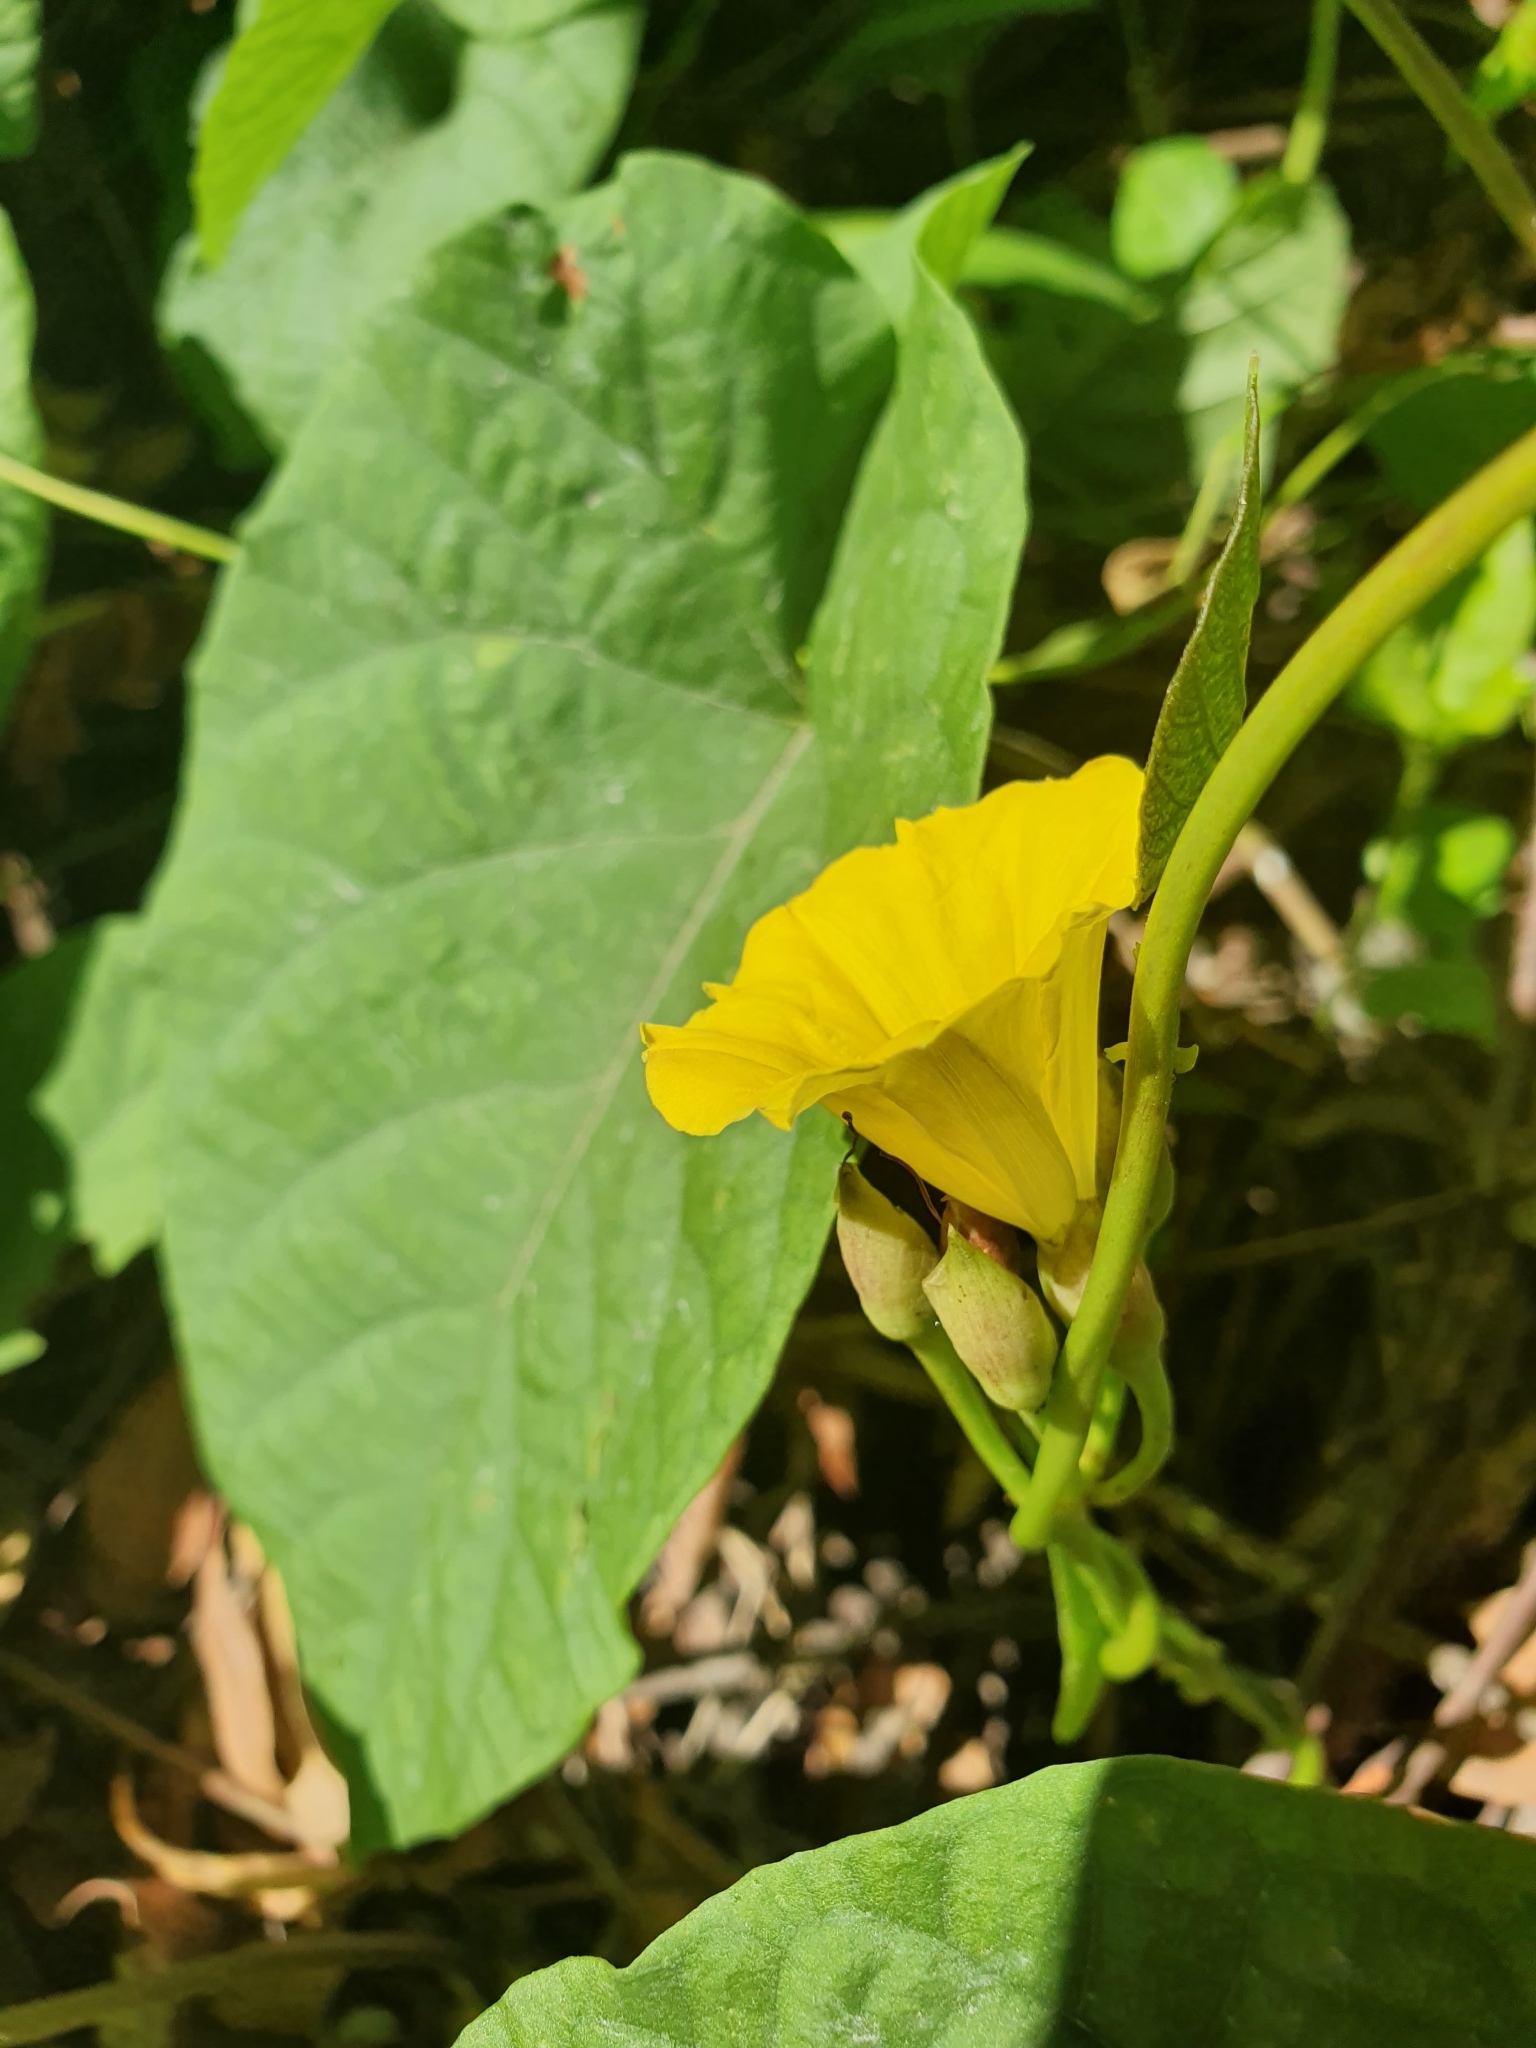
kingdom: Plantae
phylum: Tracheophyta
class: Magnoliopsida
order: Solanales
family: Convolvulaceae
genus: Camonea
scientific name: Camonea umbellata
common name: Hogvine
